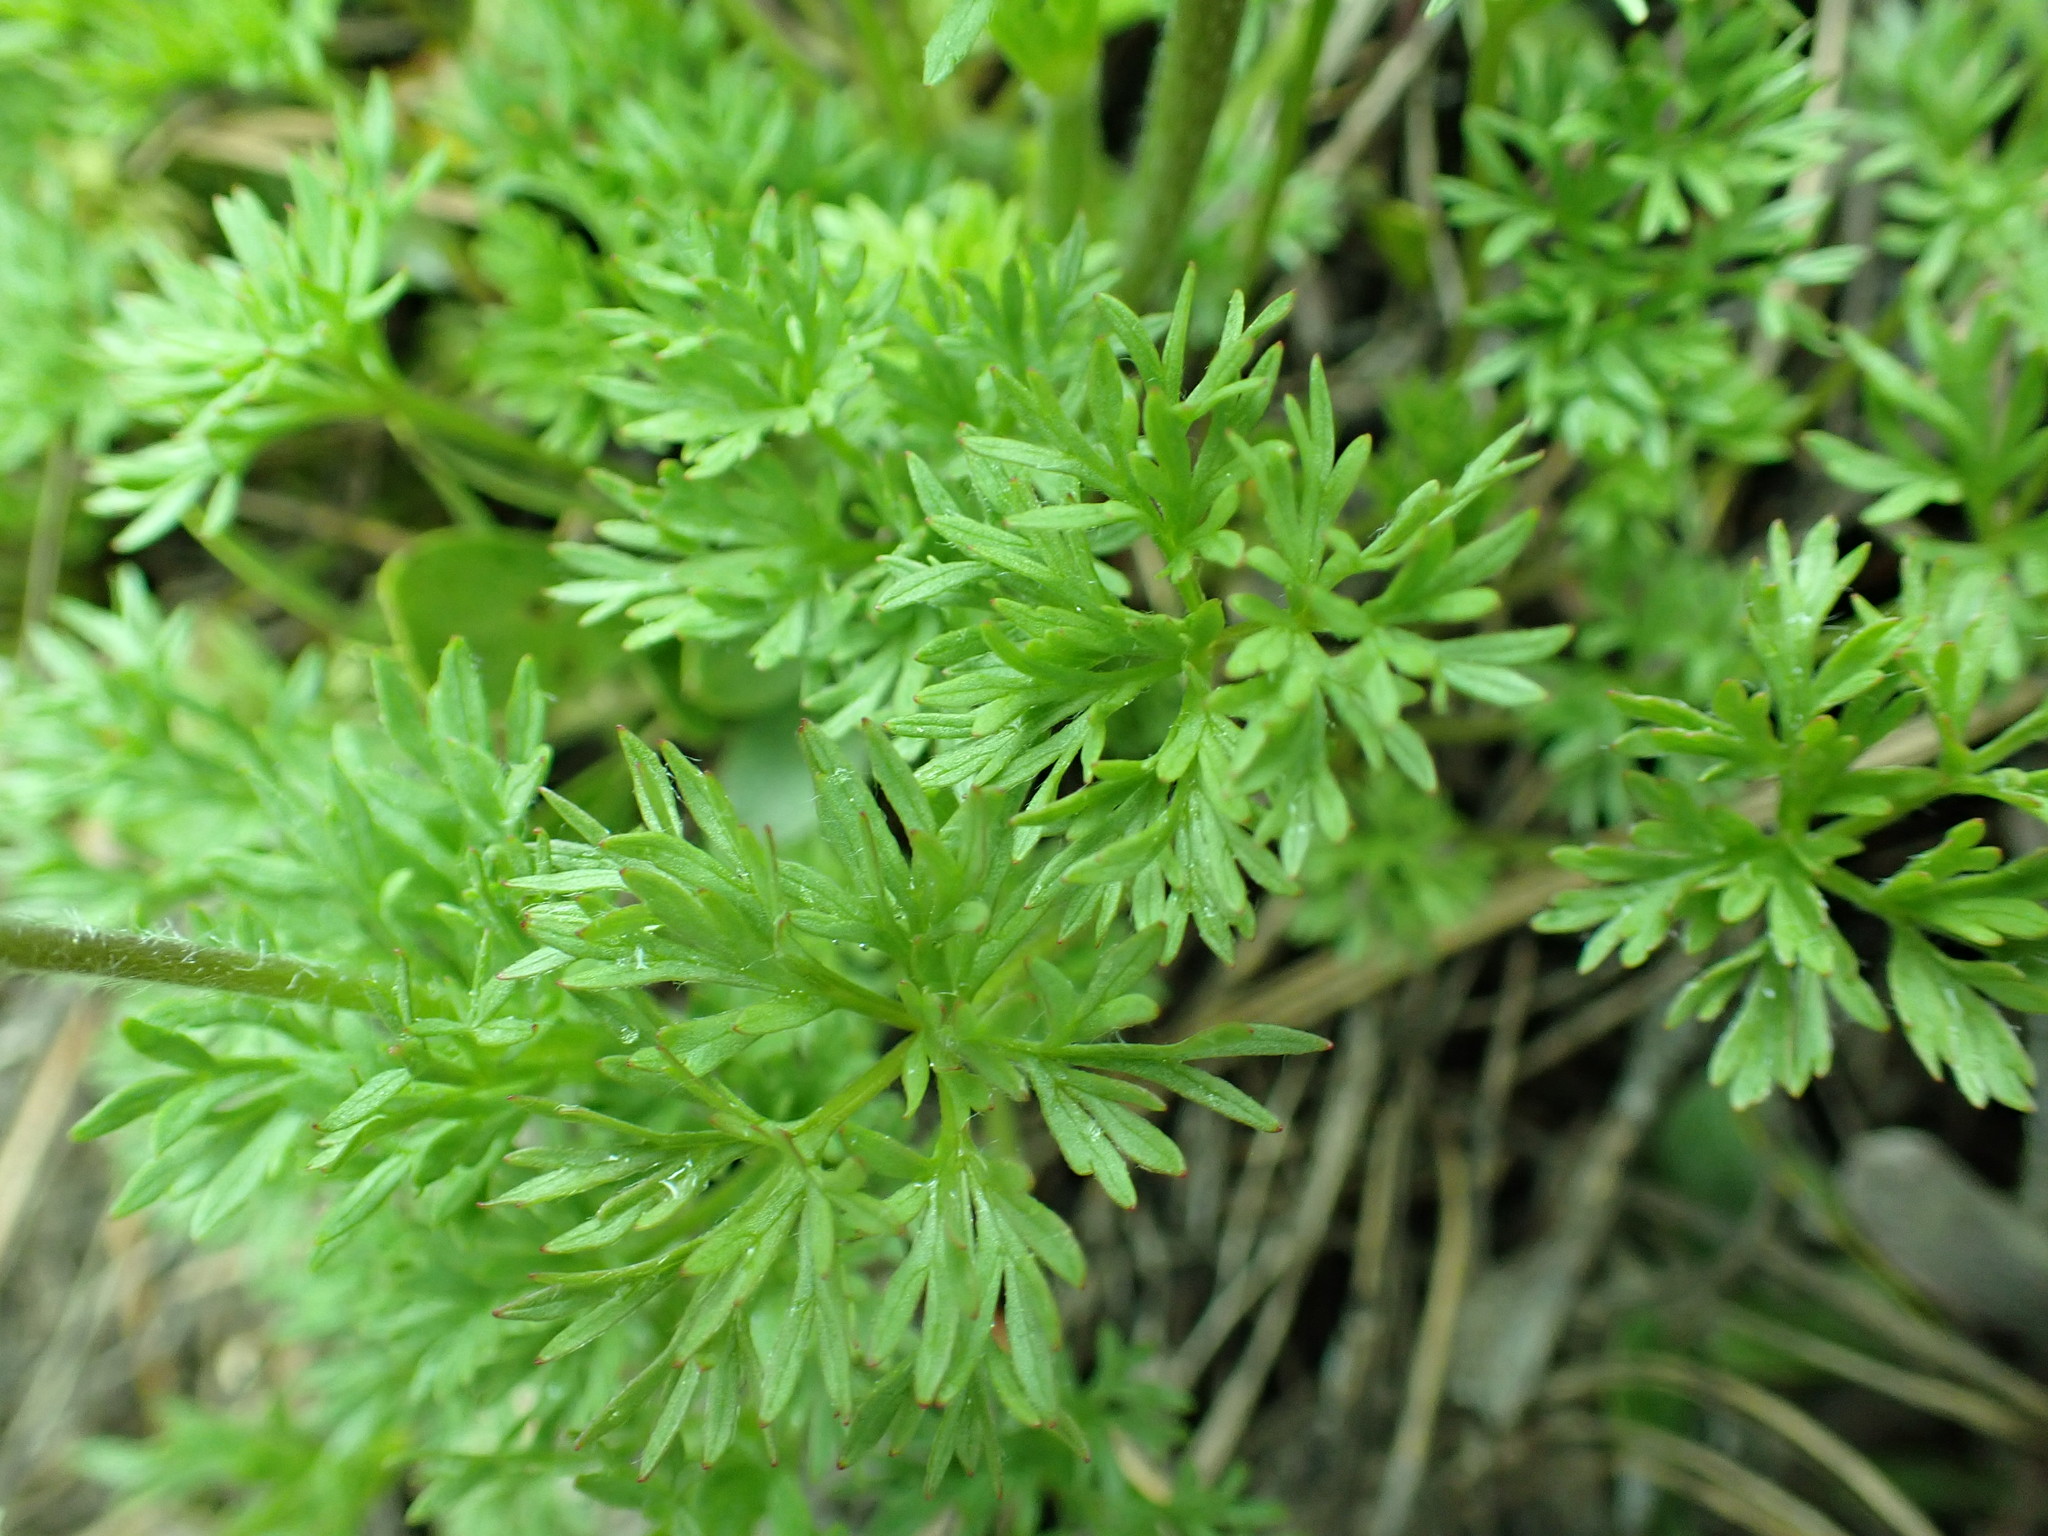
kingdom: Plantae
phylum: Tracheophyta
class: Magnoliopsida
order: Ranunculales
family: Ranunculaceae
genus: Anemone
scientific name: Anemone drummondii
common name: Drummond's anemone
